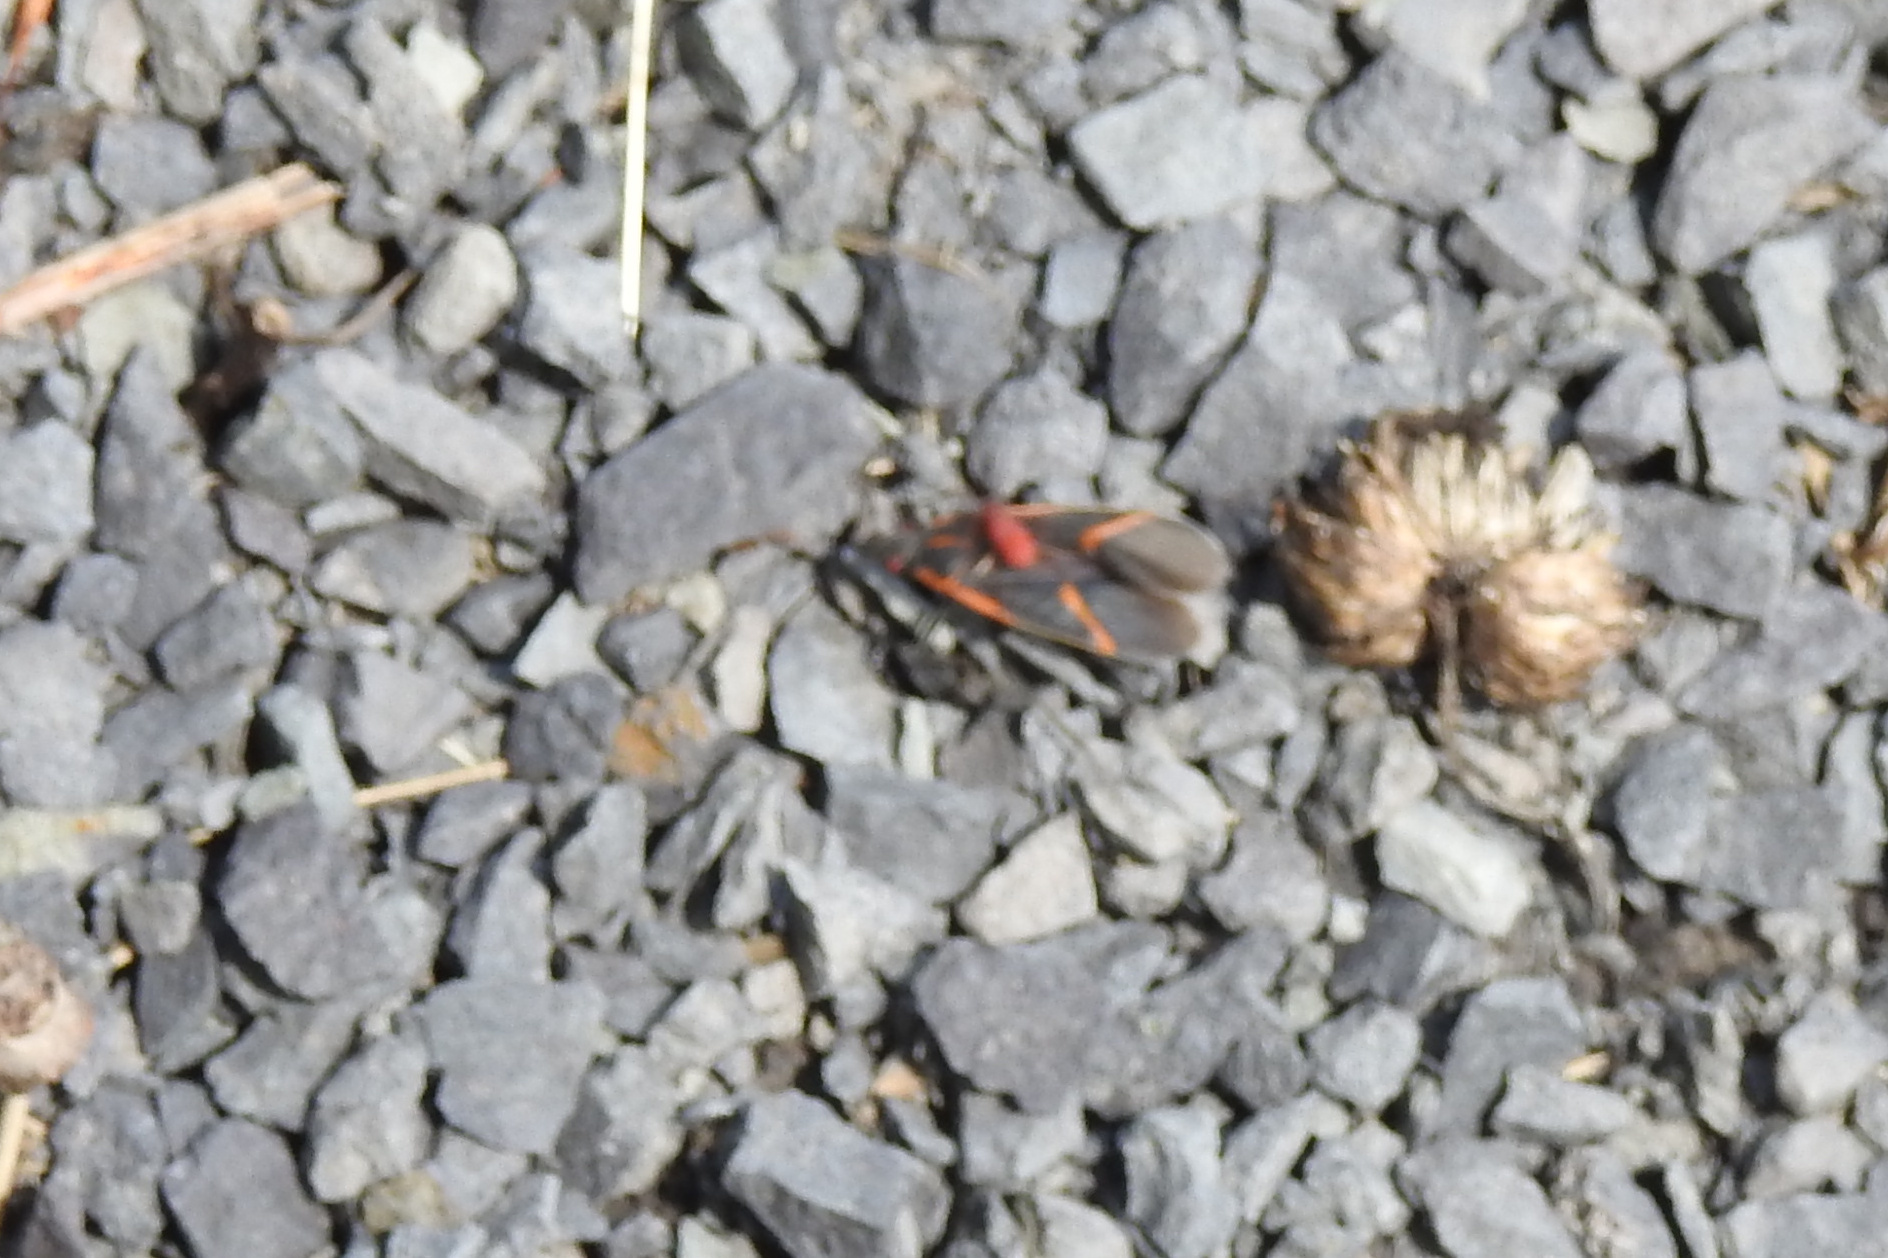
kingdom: Animalia
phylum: Arthropoda
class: Insecta
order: Hemiptera
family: Rhopalidae
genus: Boisea
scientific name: Boisea trivittata
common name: Boxelder bug
